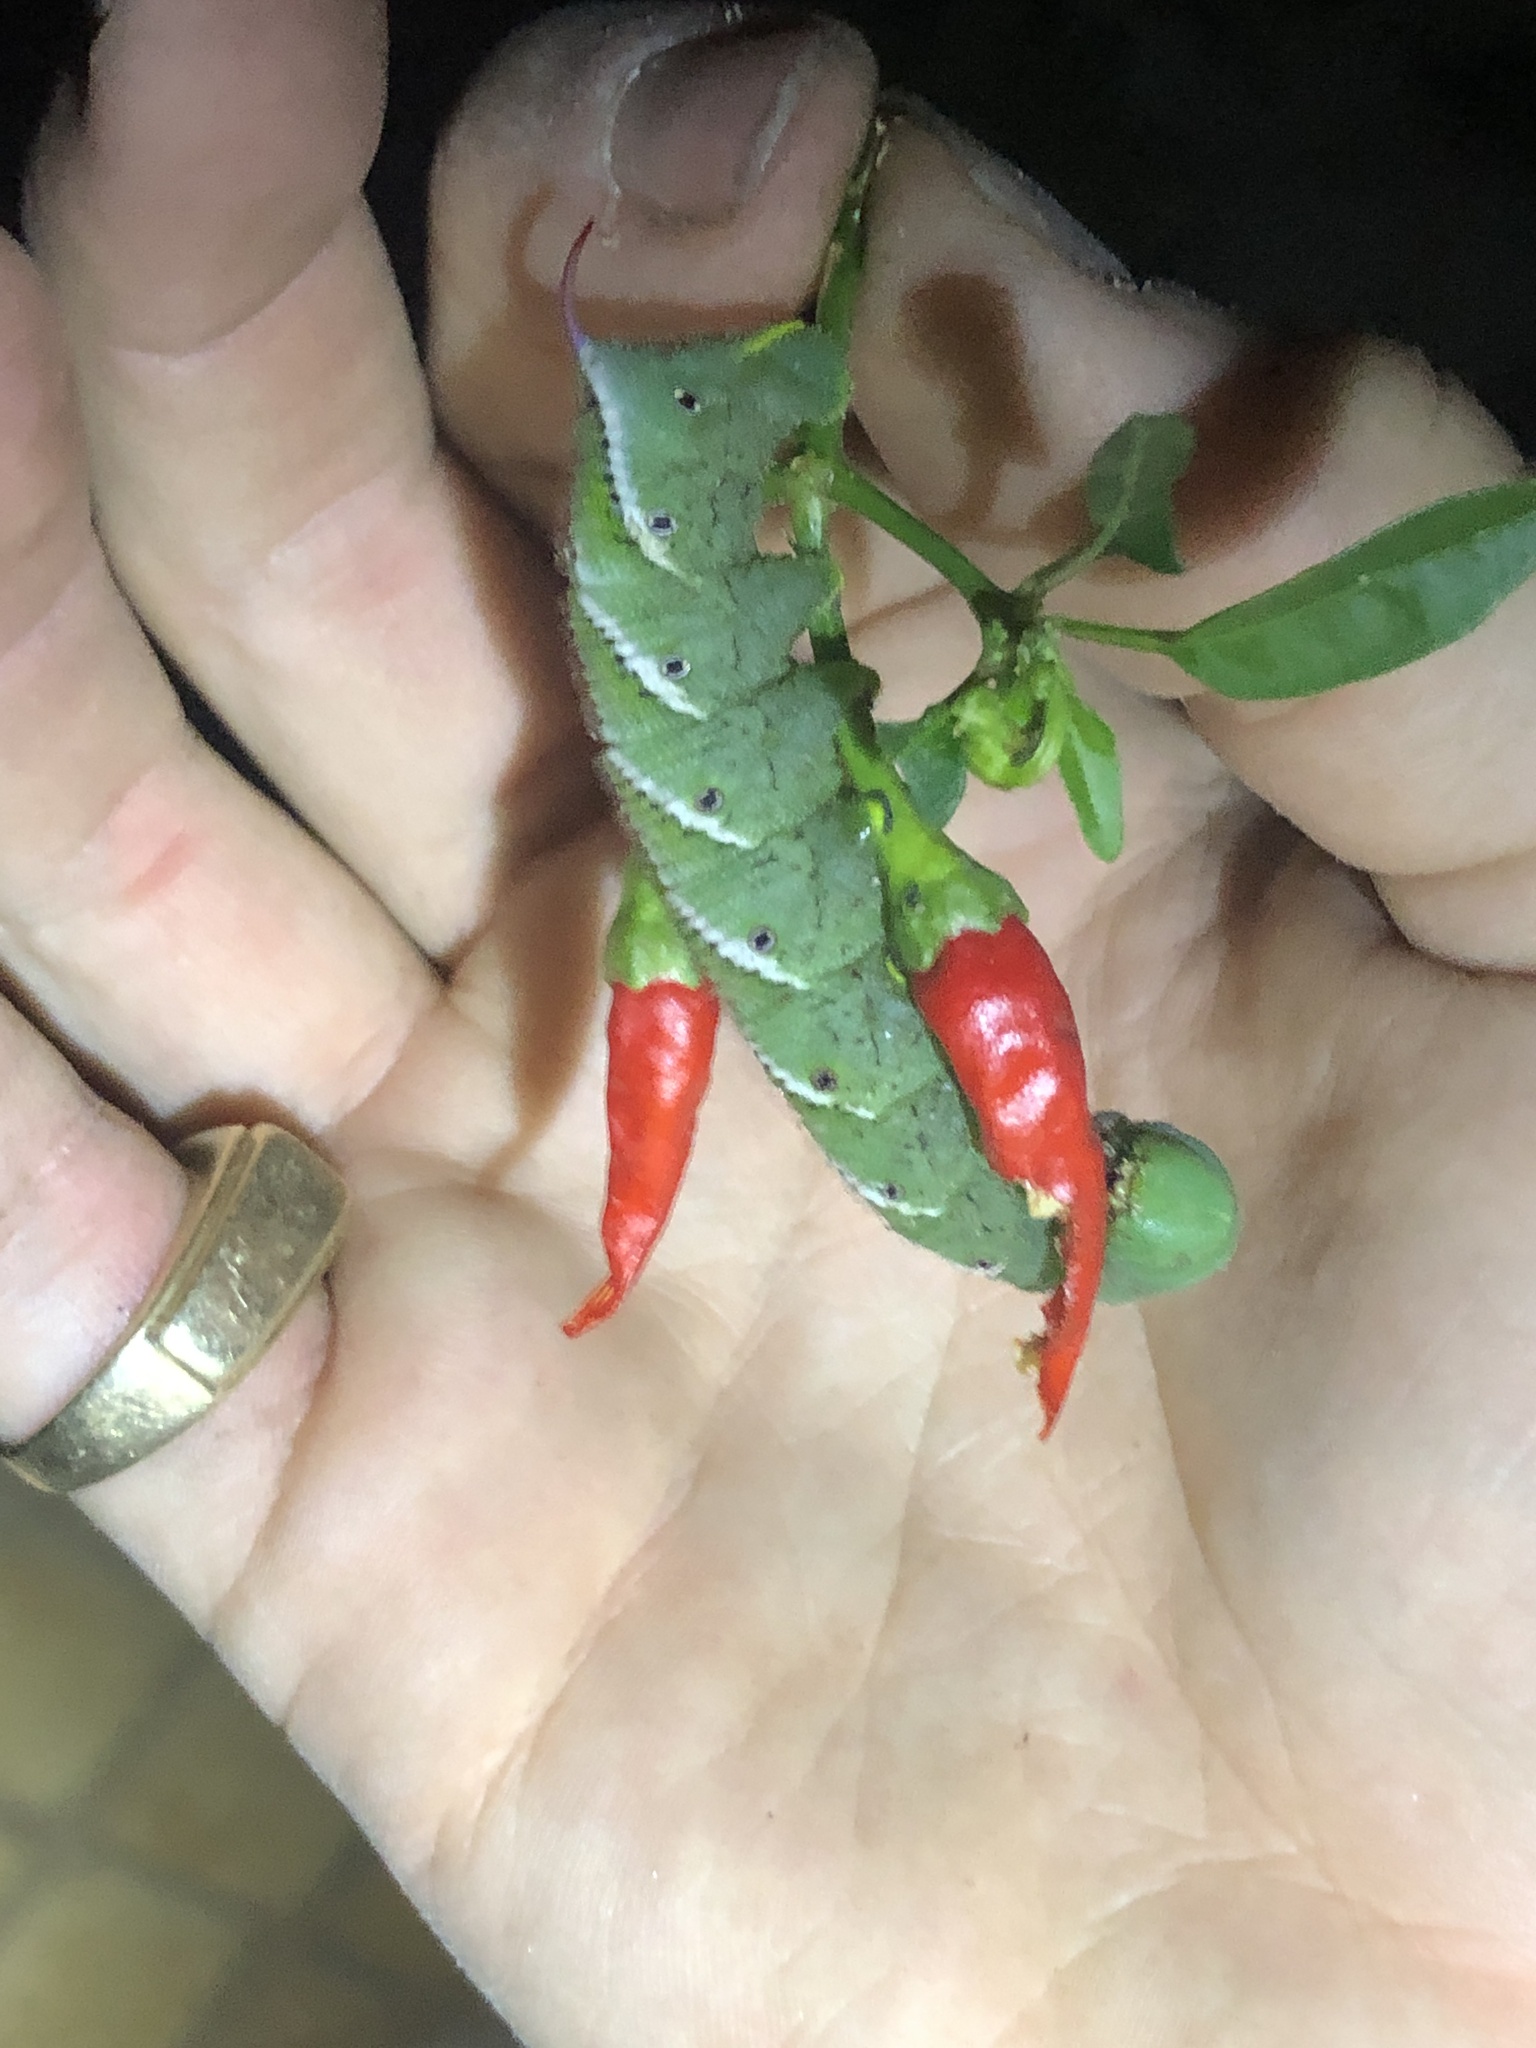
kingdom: Animalia
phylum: Arthropoda
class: Insecta
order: Lepidoptera
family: Sphingidae
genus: Manduca
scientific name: Manduca sexta
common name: Carolina sphinx
